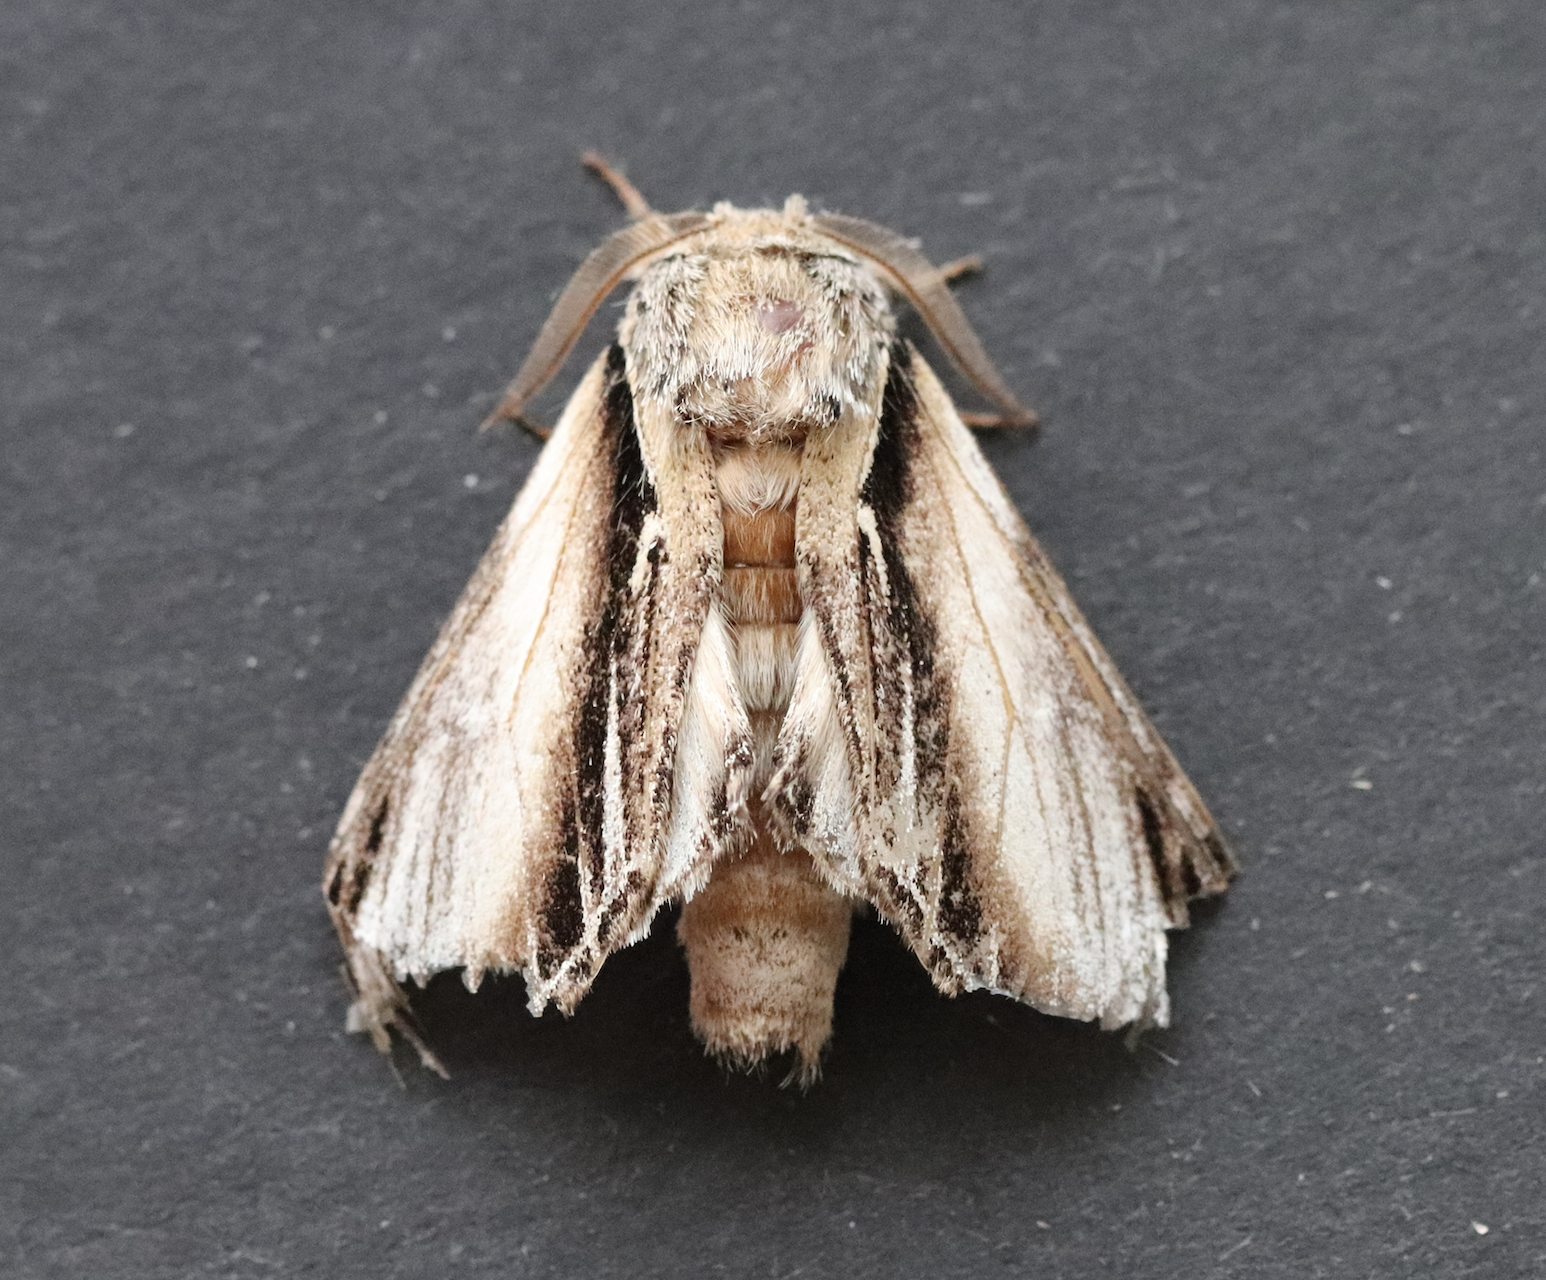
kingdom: Animalia
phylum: Arthropoda
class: Insecta
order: Lepidoptera
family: Notodontidae
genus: Pheosia
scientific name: Pheosia tremula
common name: Swallow prominent
